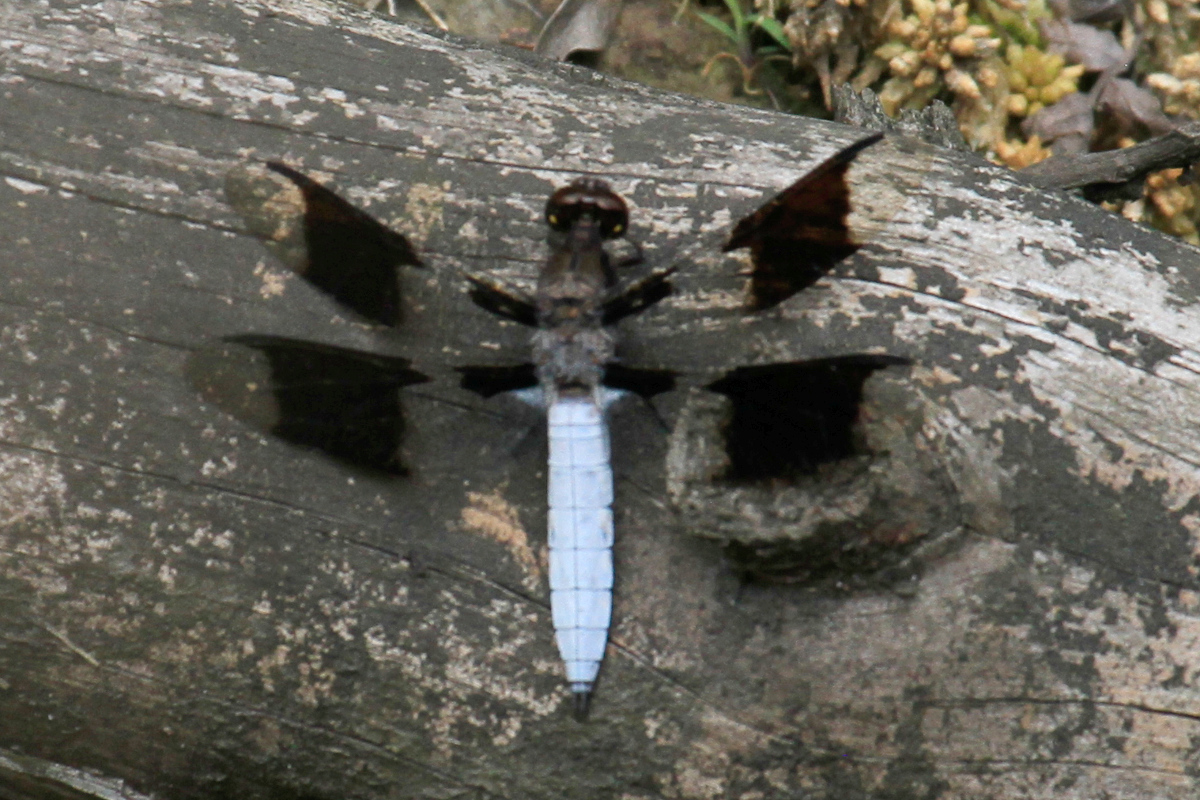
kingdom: Animalia
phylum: Arthropoda
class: Insecta
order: Odonata
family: Libellulidae
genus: Plathemis
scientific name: Plathemis lydia
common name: Common whitetail
